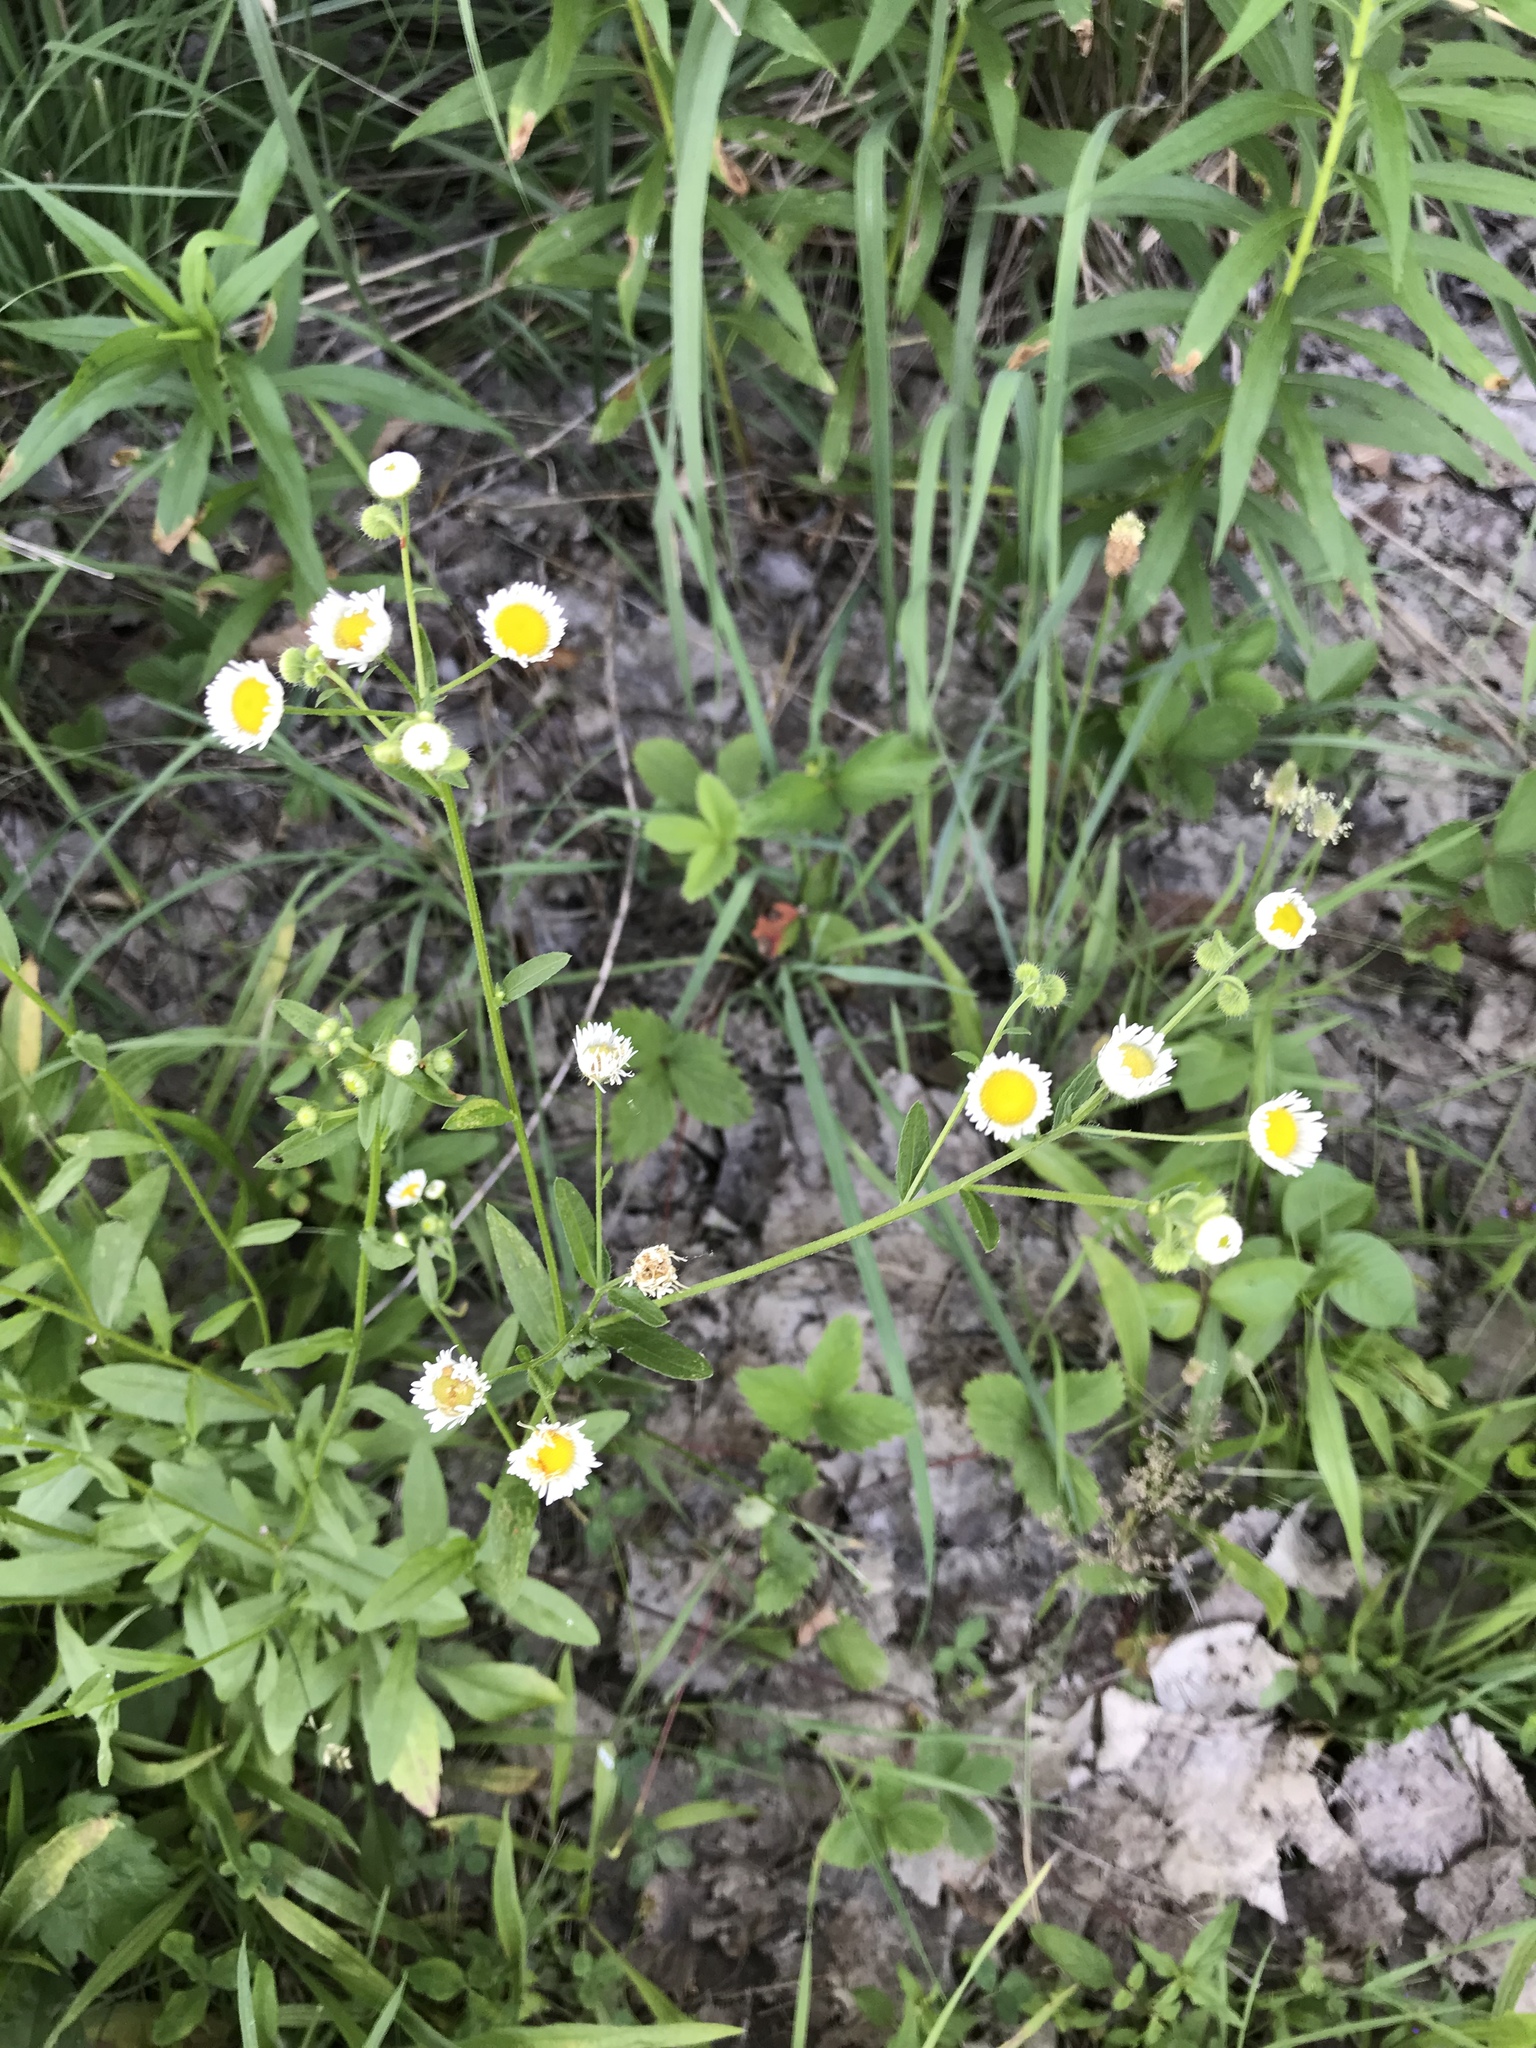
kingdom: Plantae
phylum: Tracheophyta
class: Magnoliopsida
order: Asterales
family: Asteraceae
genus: Erigeron
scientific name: Erigeron philadelphicus
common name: Robin's-plantain
